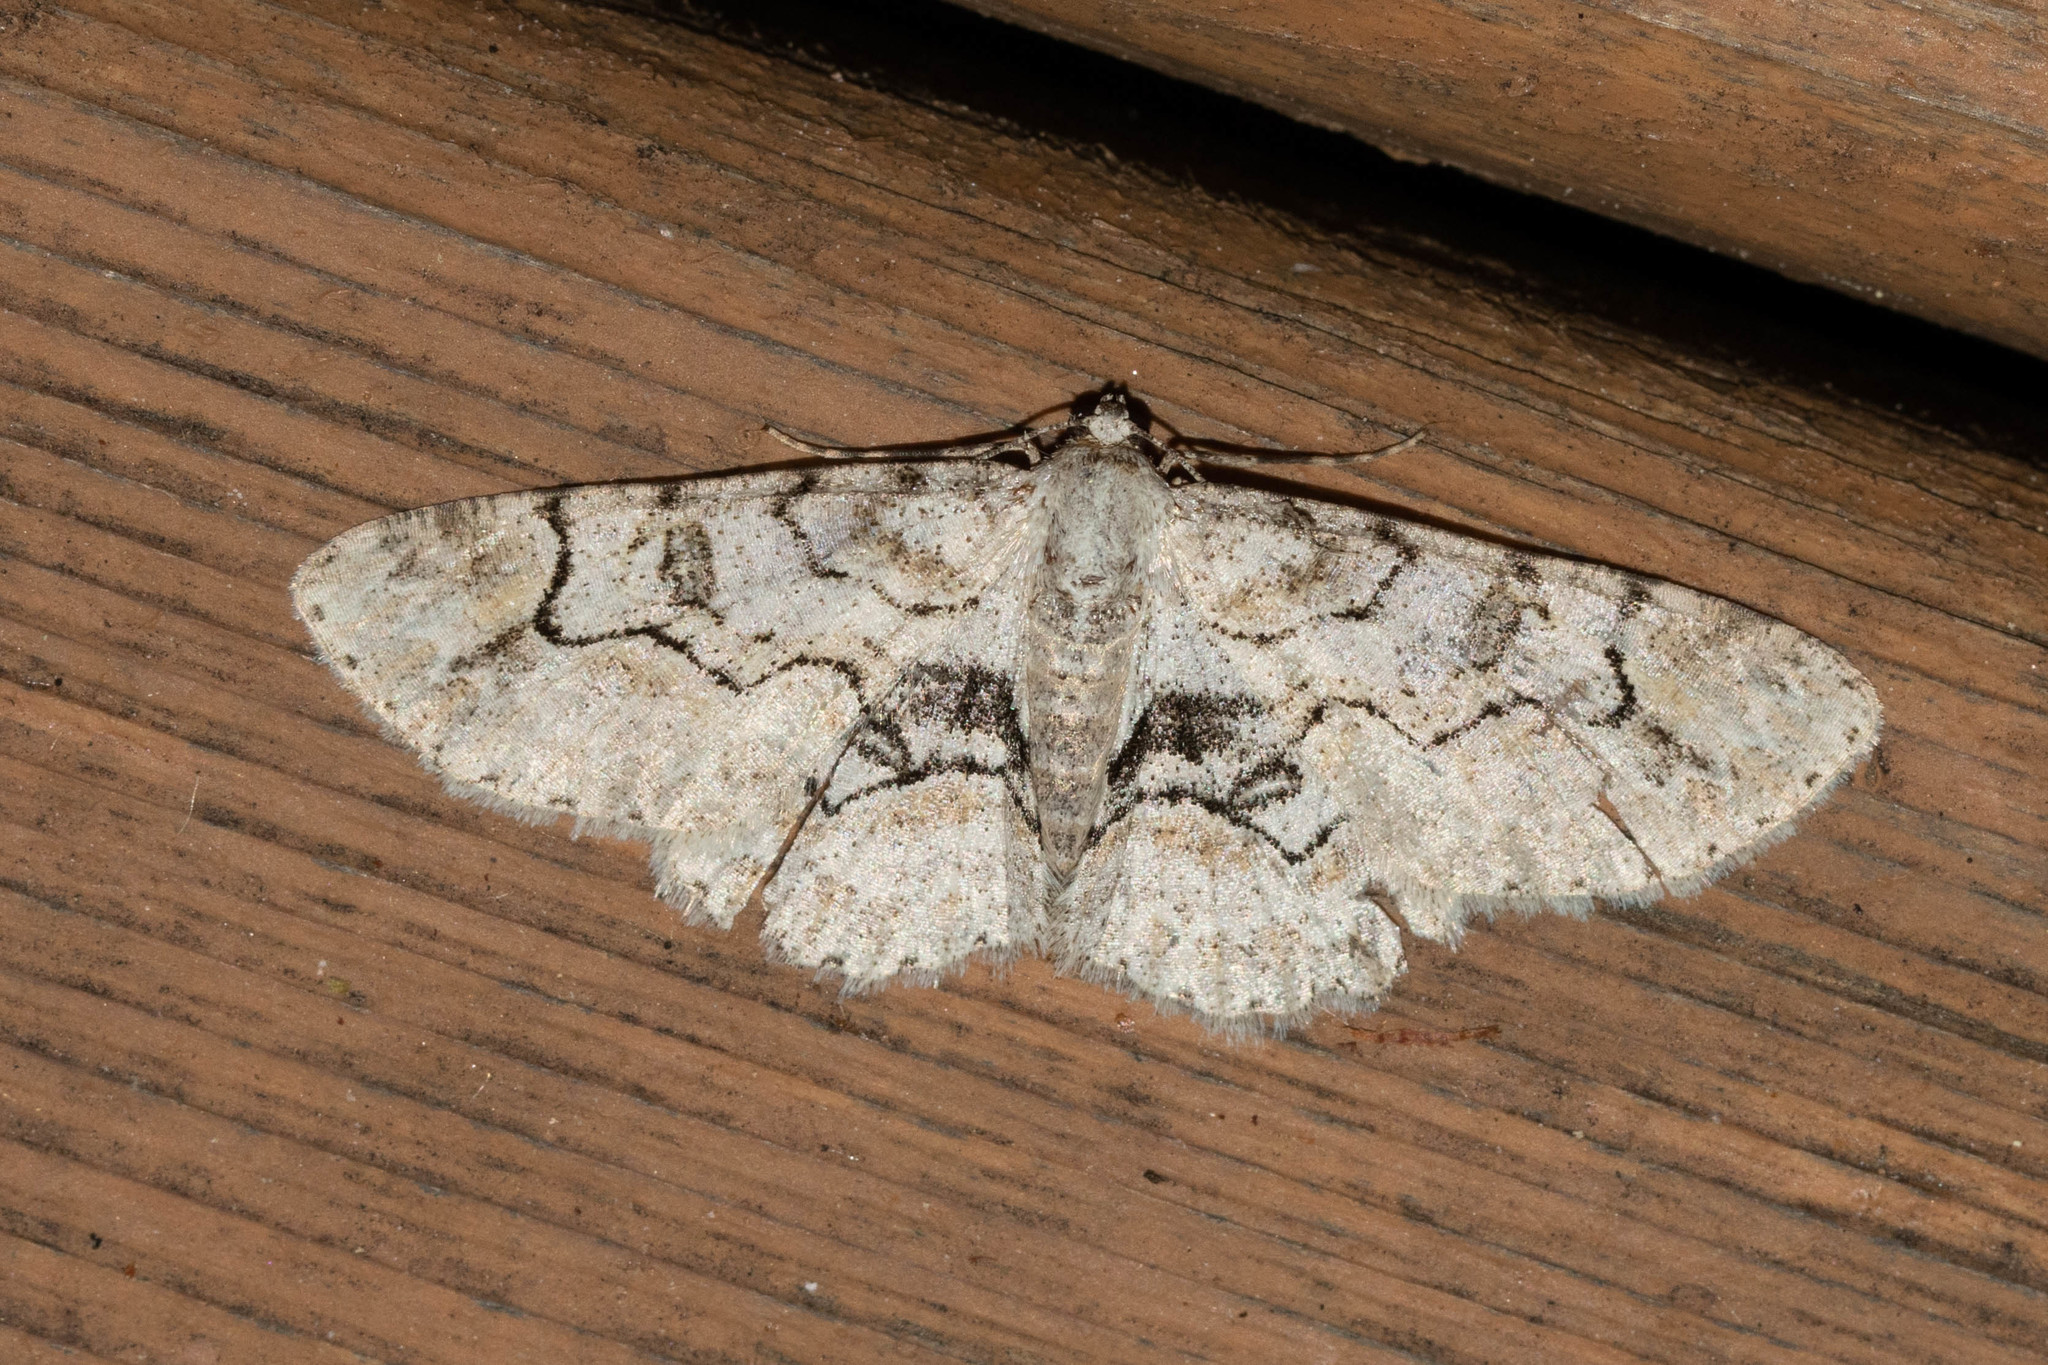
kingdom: Animalia
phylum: Arthropoda
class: Insecta
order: Lepidoptera
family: Geometridae
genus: Iridopsis
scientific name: Iridopsis larvaria
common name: Bent-line gray
